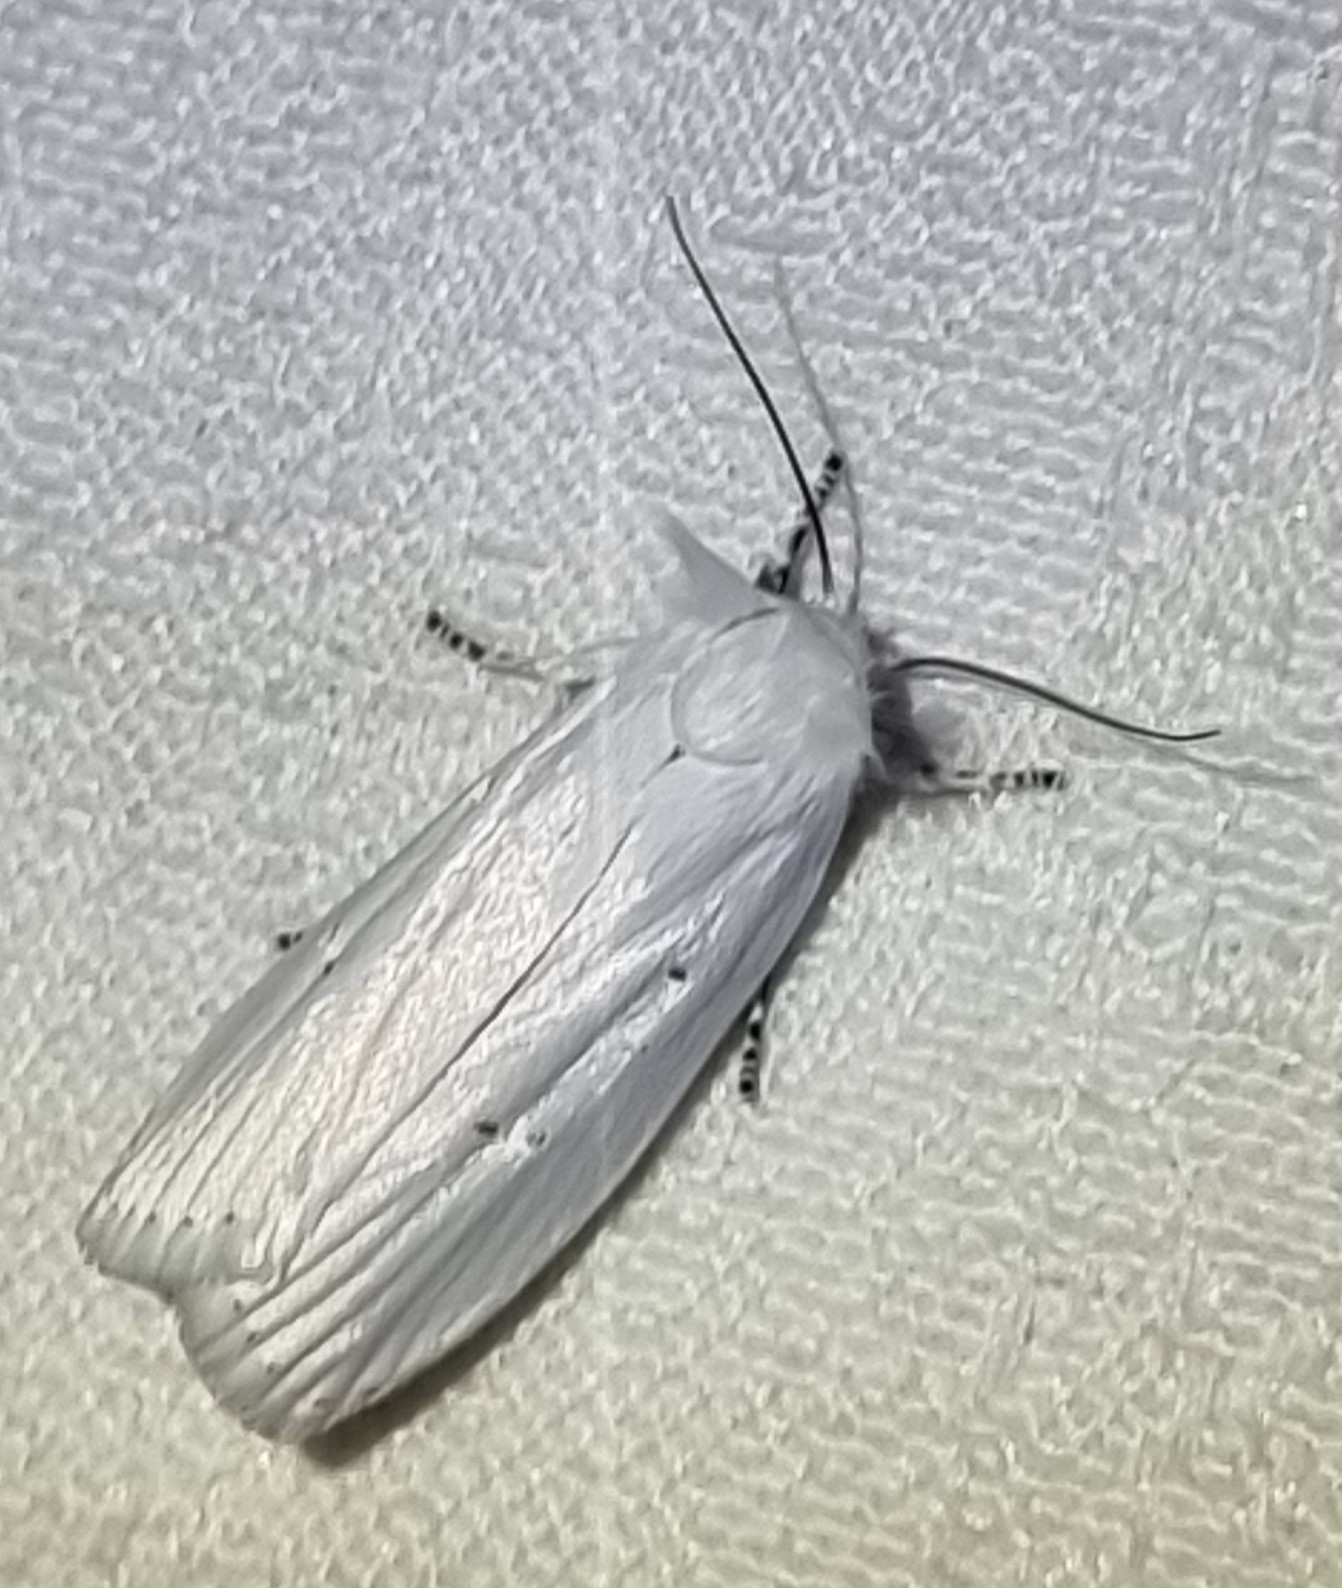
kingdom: Animalia
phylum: Arthropoda
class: Insecta
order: Lepidoptera
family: Xyloryctidae
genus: Cryptophasa
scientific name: Cryptophasa pultenae
